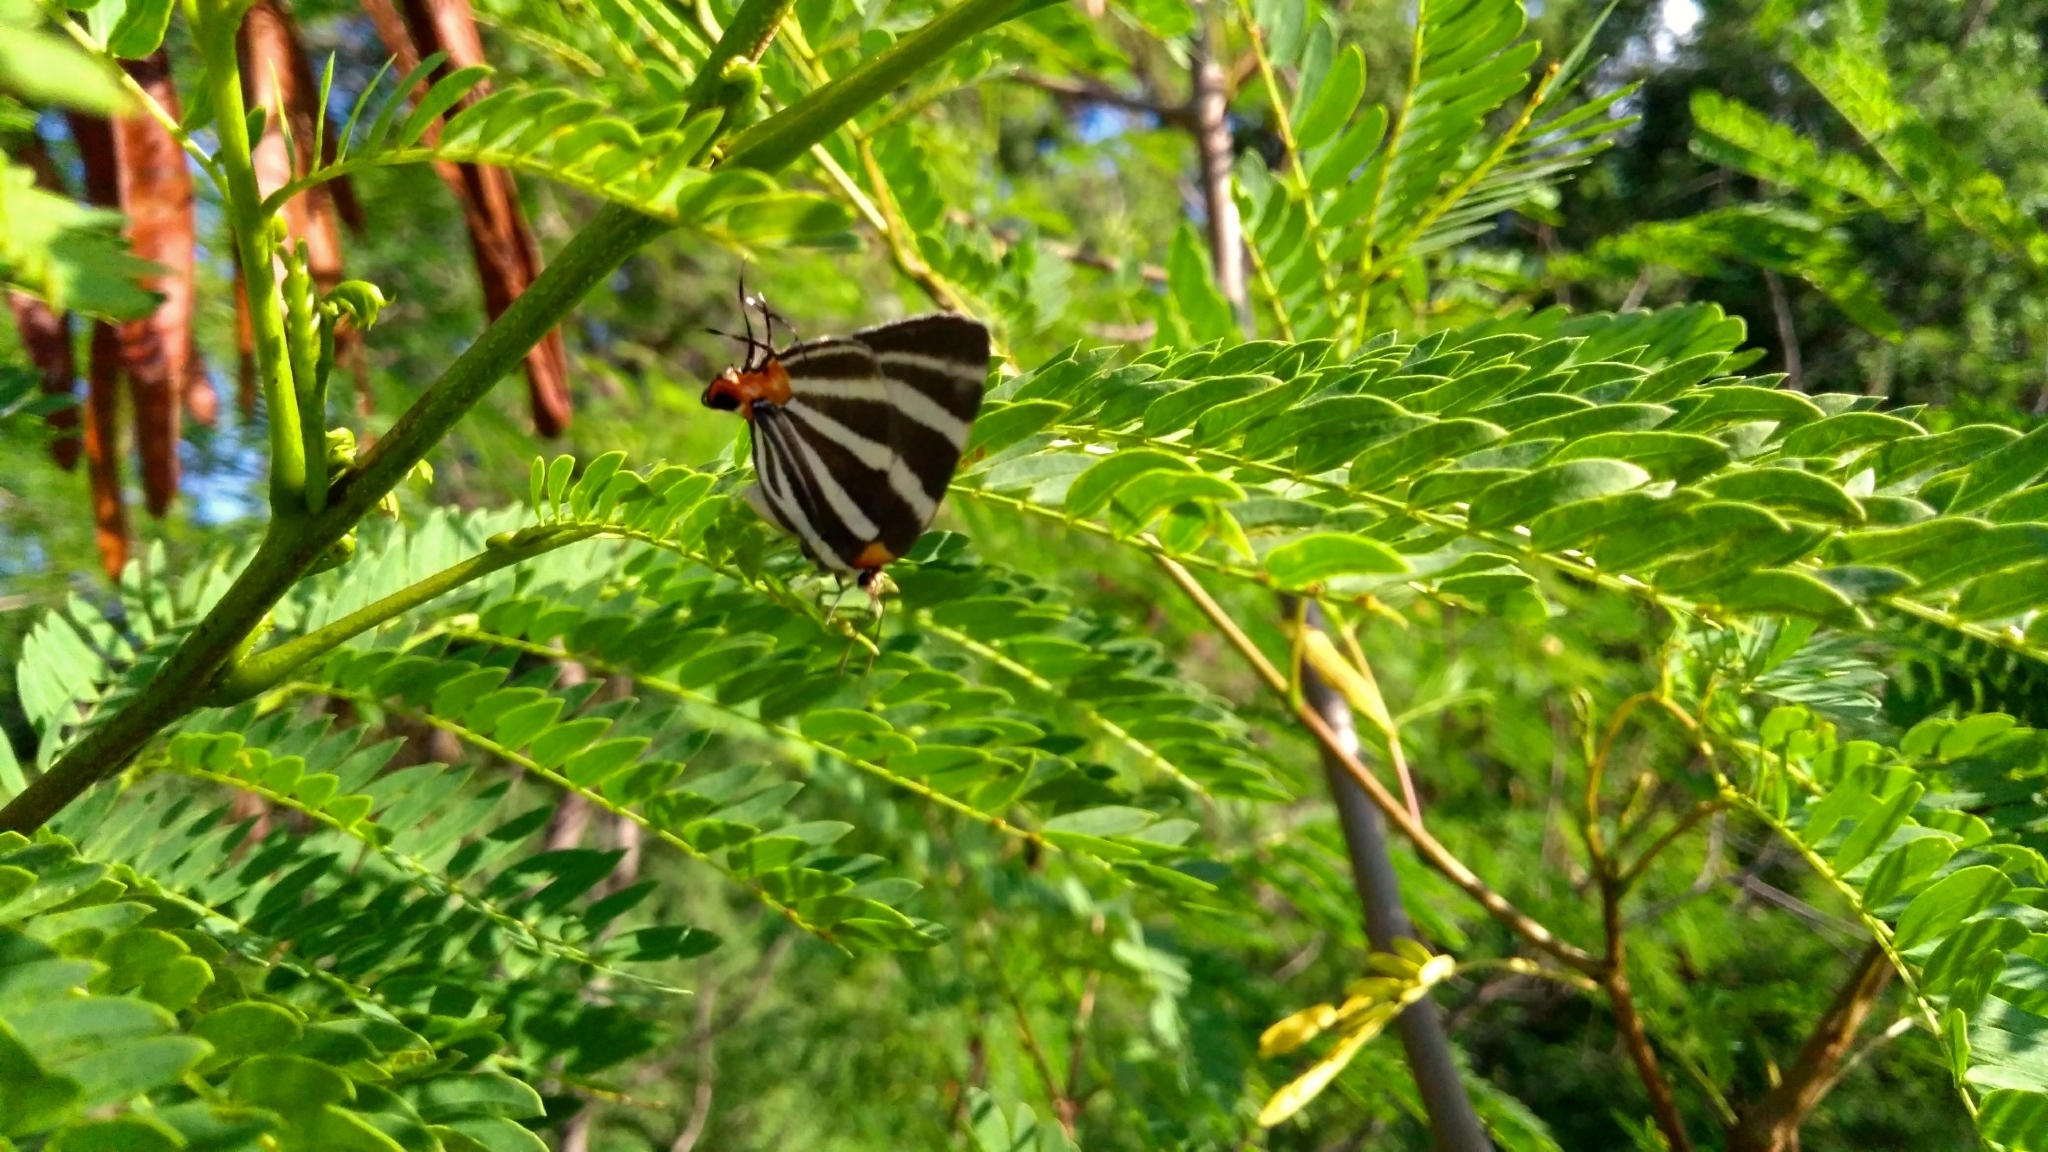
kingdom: Animalia
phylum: Arthropoda
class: Insecta
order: Lepidoptera
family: Lycaenidae
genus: Thecla
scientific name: Thecla bathildis
